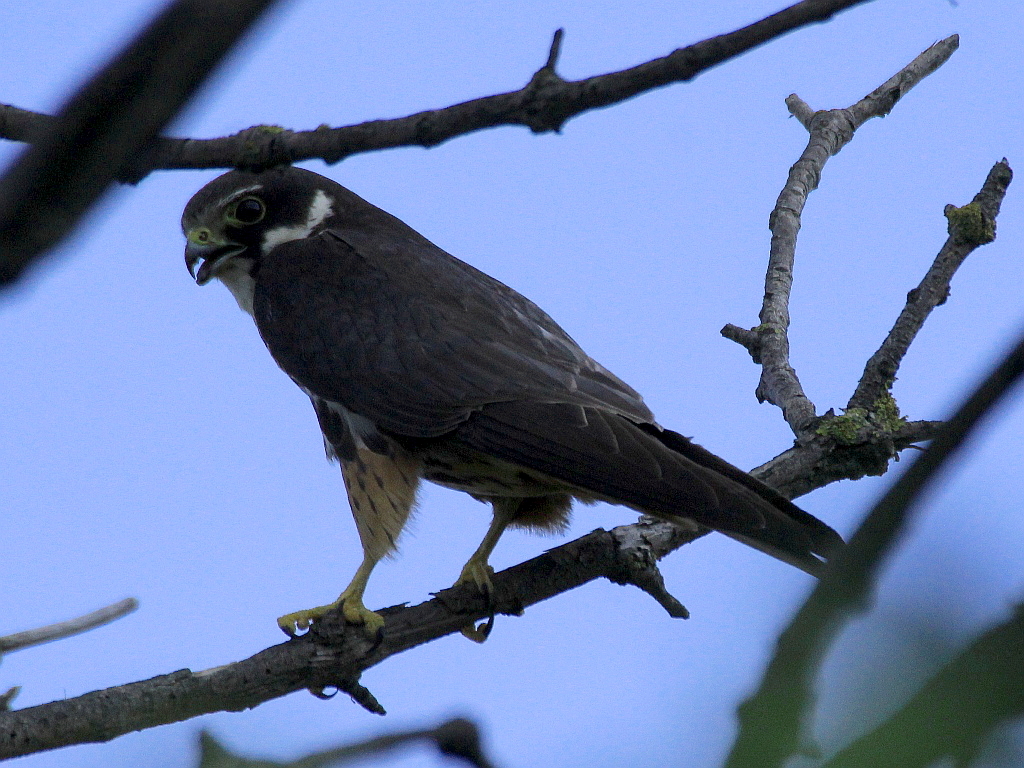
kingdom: Animalia
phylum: Chordata
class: Aves
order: Falconiformes
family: Falconidae
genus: Falco
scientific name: Falco subbuteo
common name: Eurasian hobby
